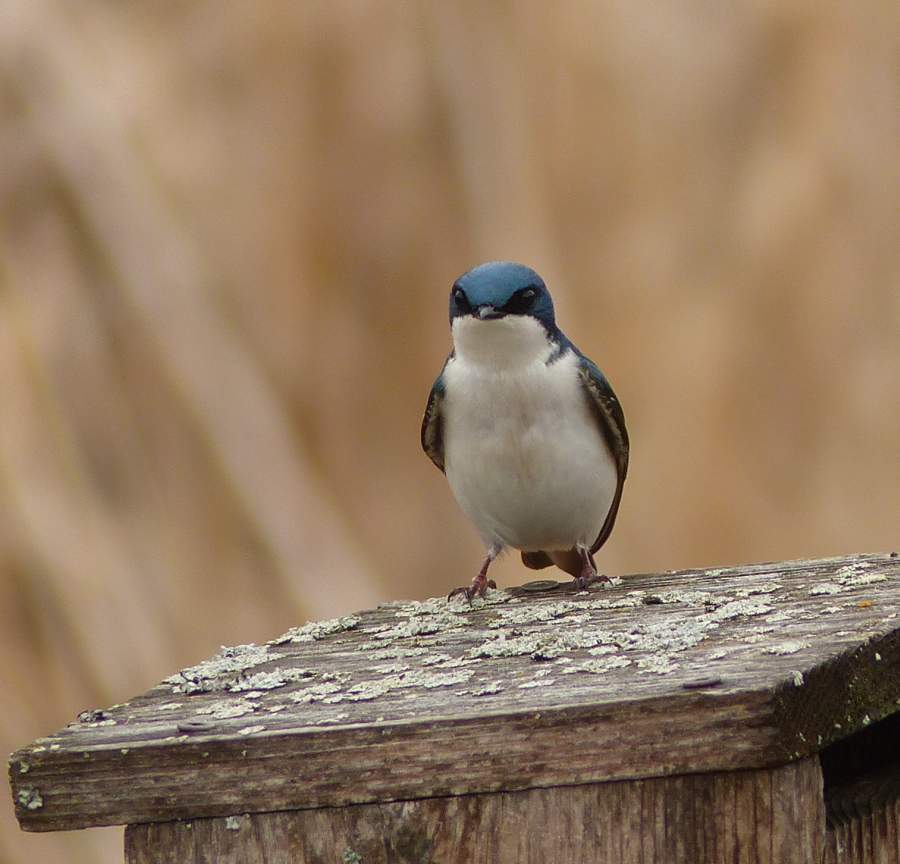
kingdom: Animalia
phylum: Chordata
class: Aves
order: Passeriformes
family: Hirundinidae
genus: Tachycineta
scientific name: Tachycineta bicolor
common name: Tree swallow
